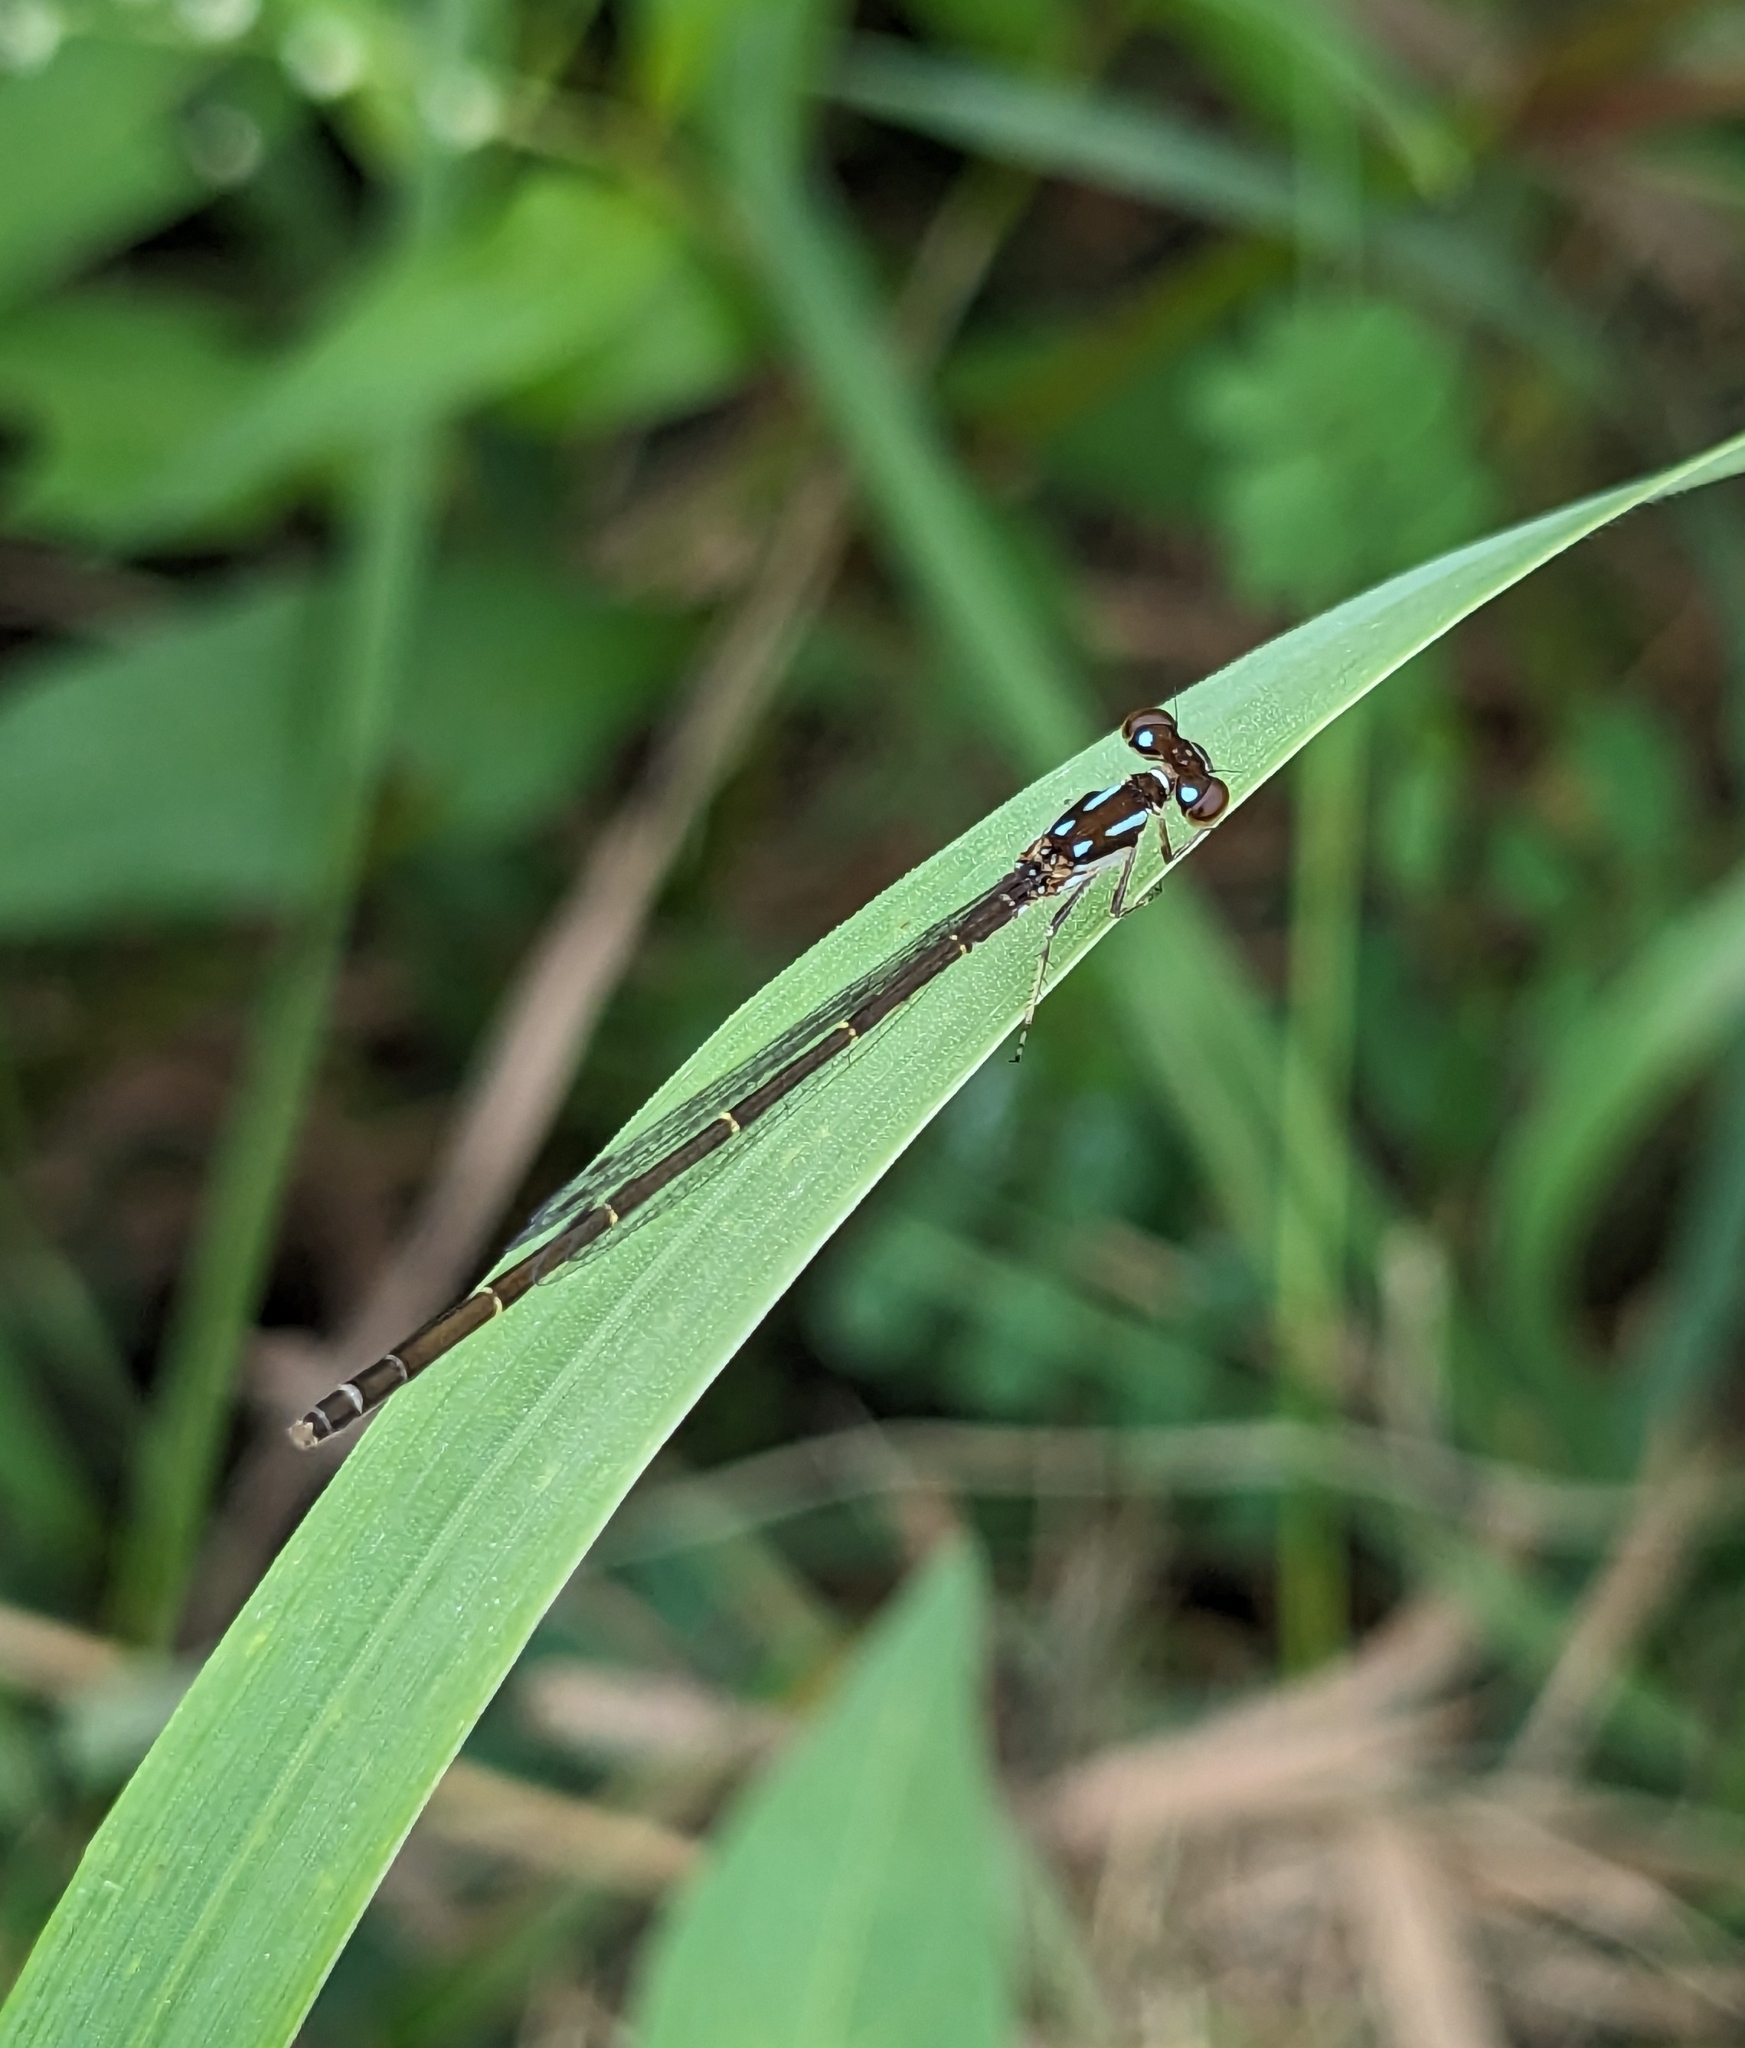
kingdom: Animalia
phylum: Arthropoda
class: Insecta
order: Odonata
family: Coenagrionidae
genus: Ischnura
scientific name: Ischnura posita
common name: Fragile forktail
